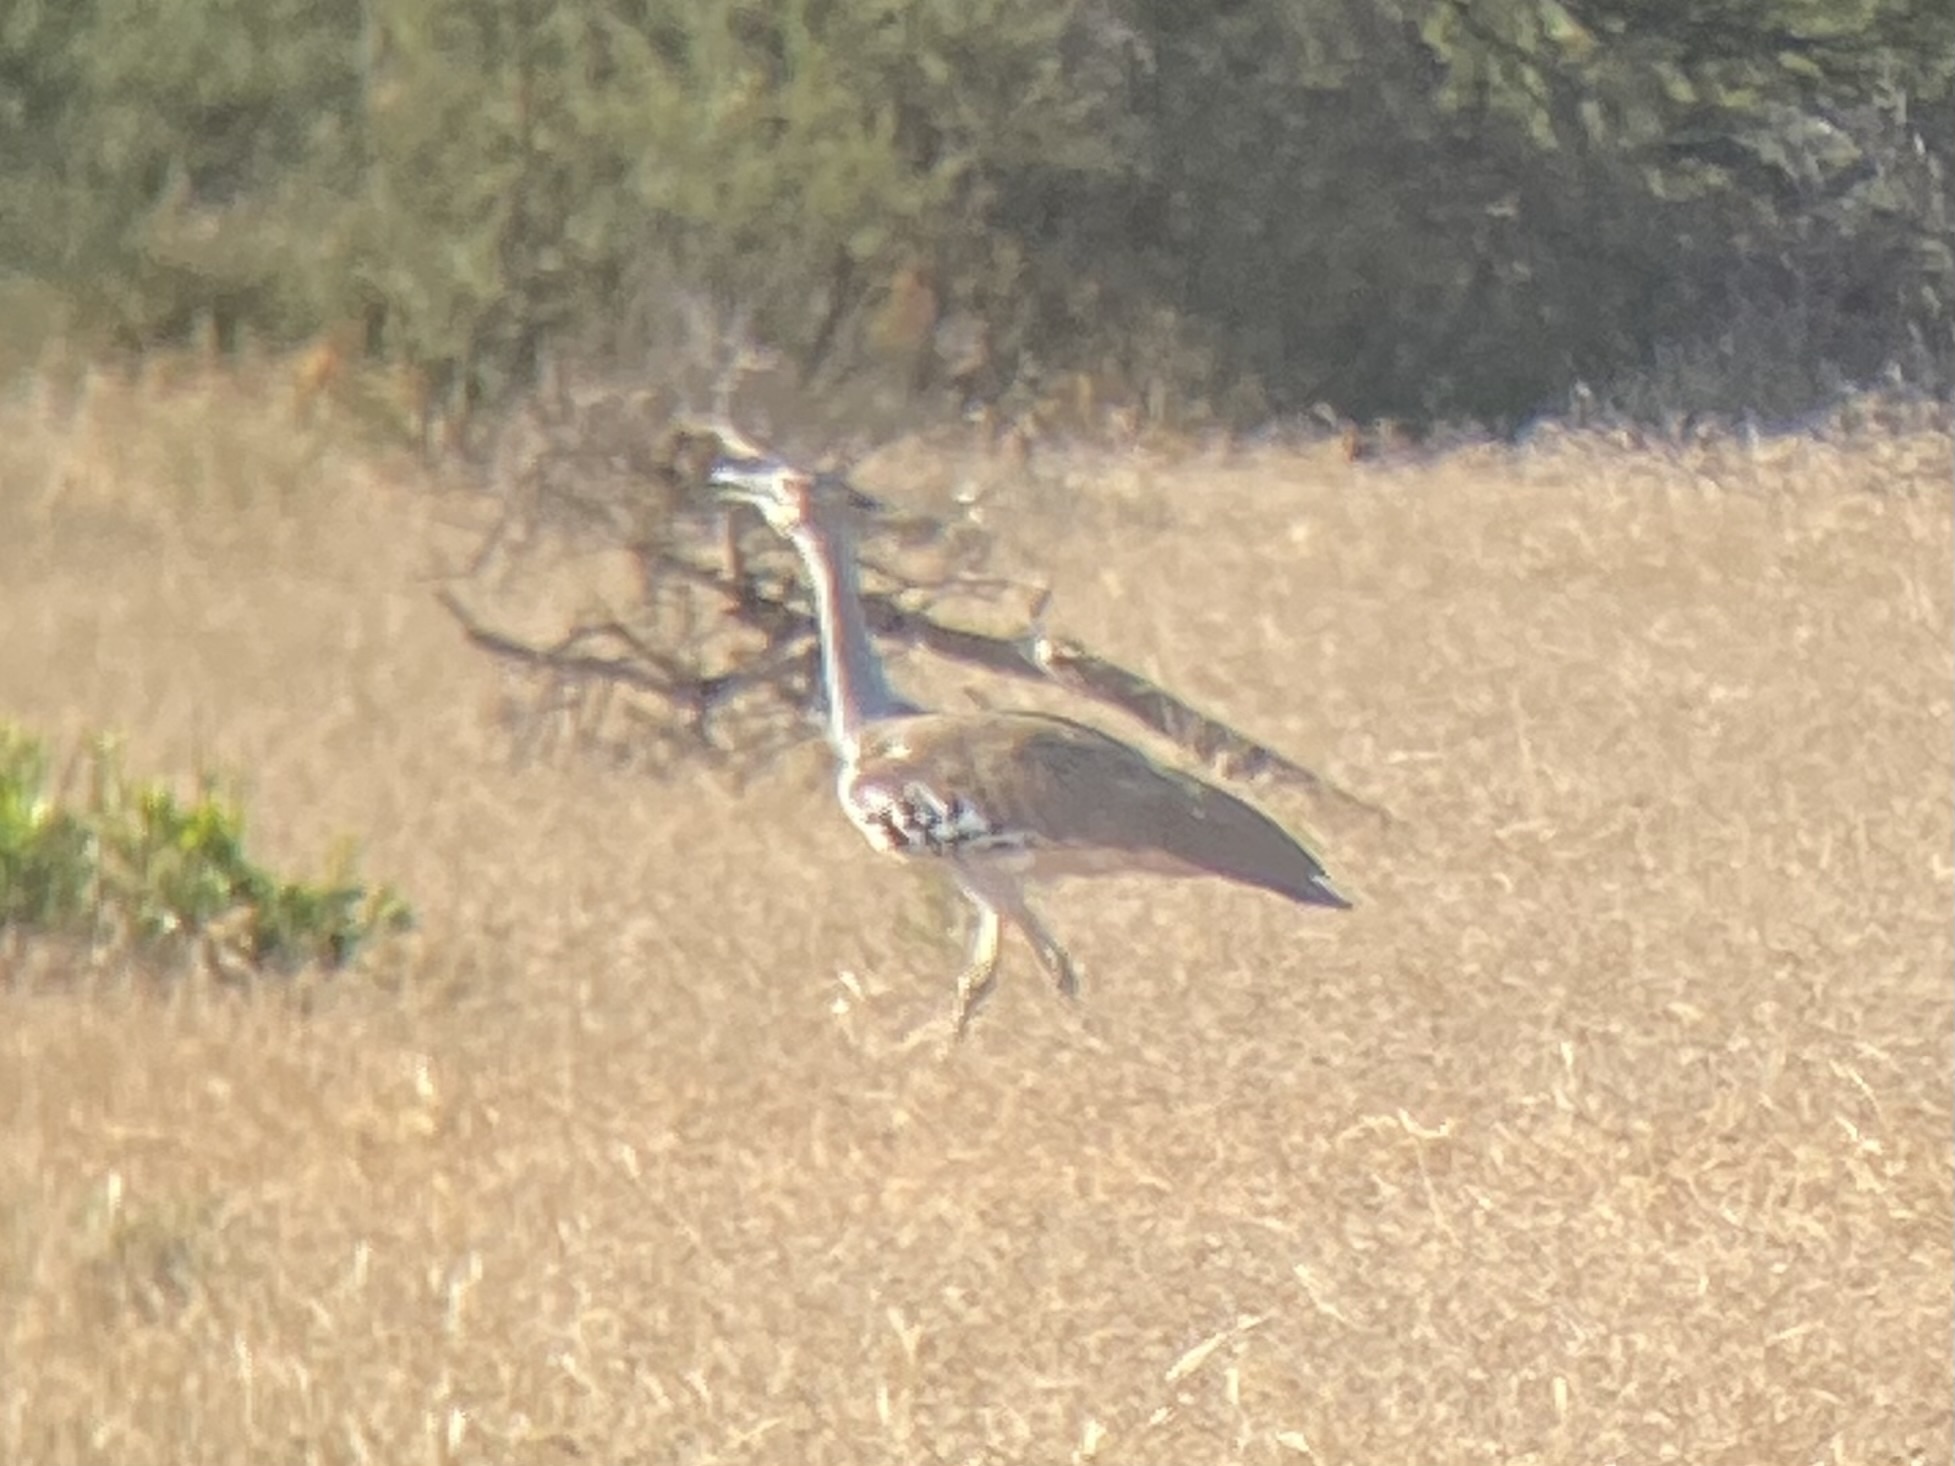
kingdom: Animalia
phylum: Chordata
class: Aves
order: Otidiformes
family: Otididae
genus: Ardeotis
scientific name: Ardeotis kori
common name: Kori bustard
